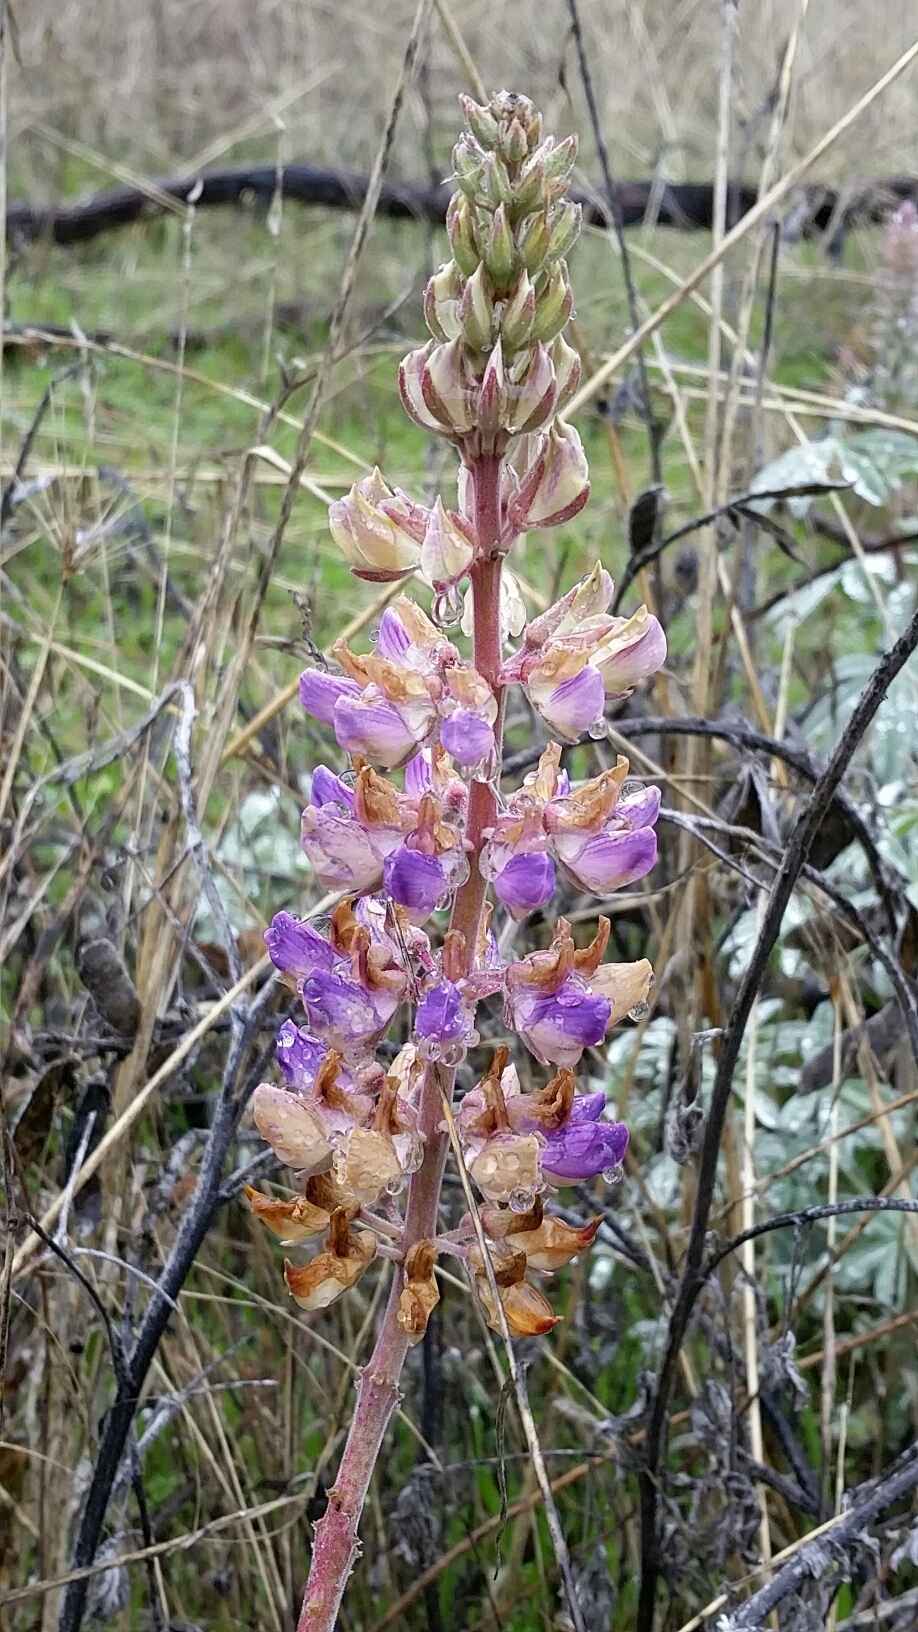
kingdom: Plantae
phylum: Tracheophyta
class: Magnoliopsida
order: Fabales
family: Fabaceae
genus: Lupinus
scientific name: Lupinus formosus
